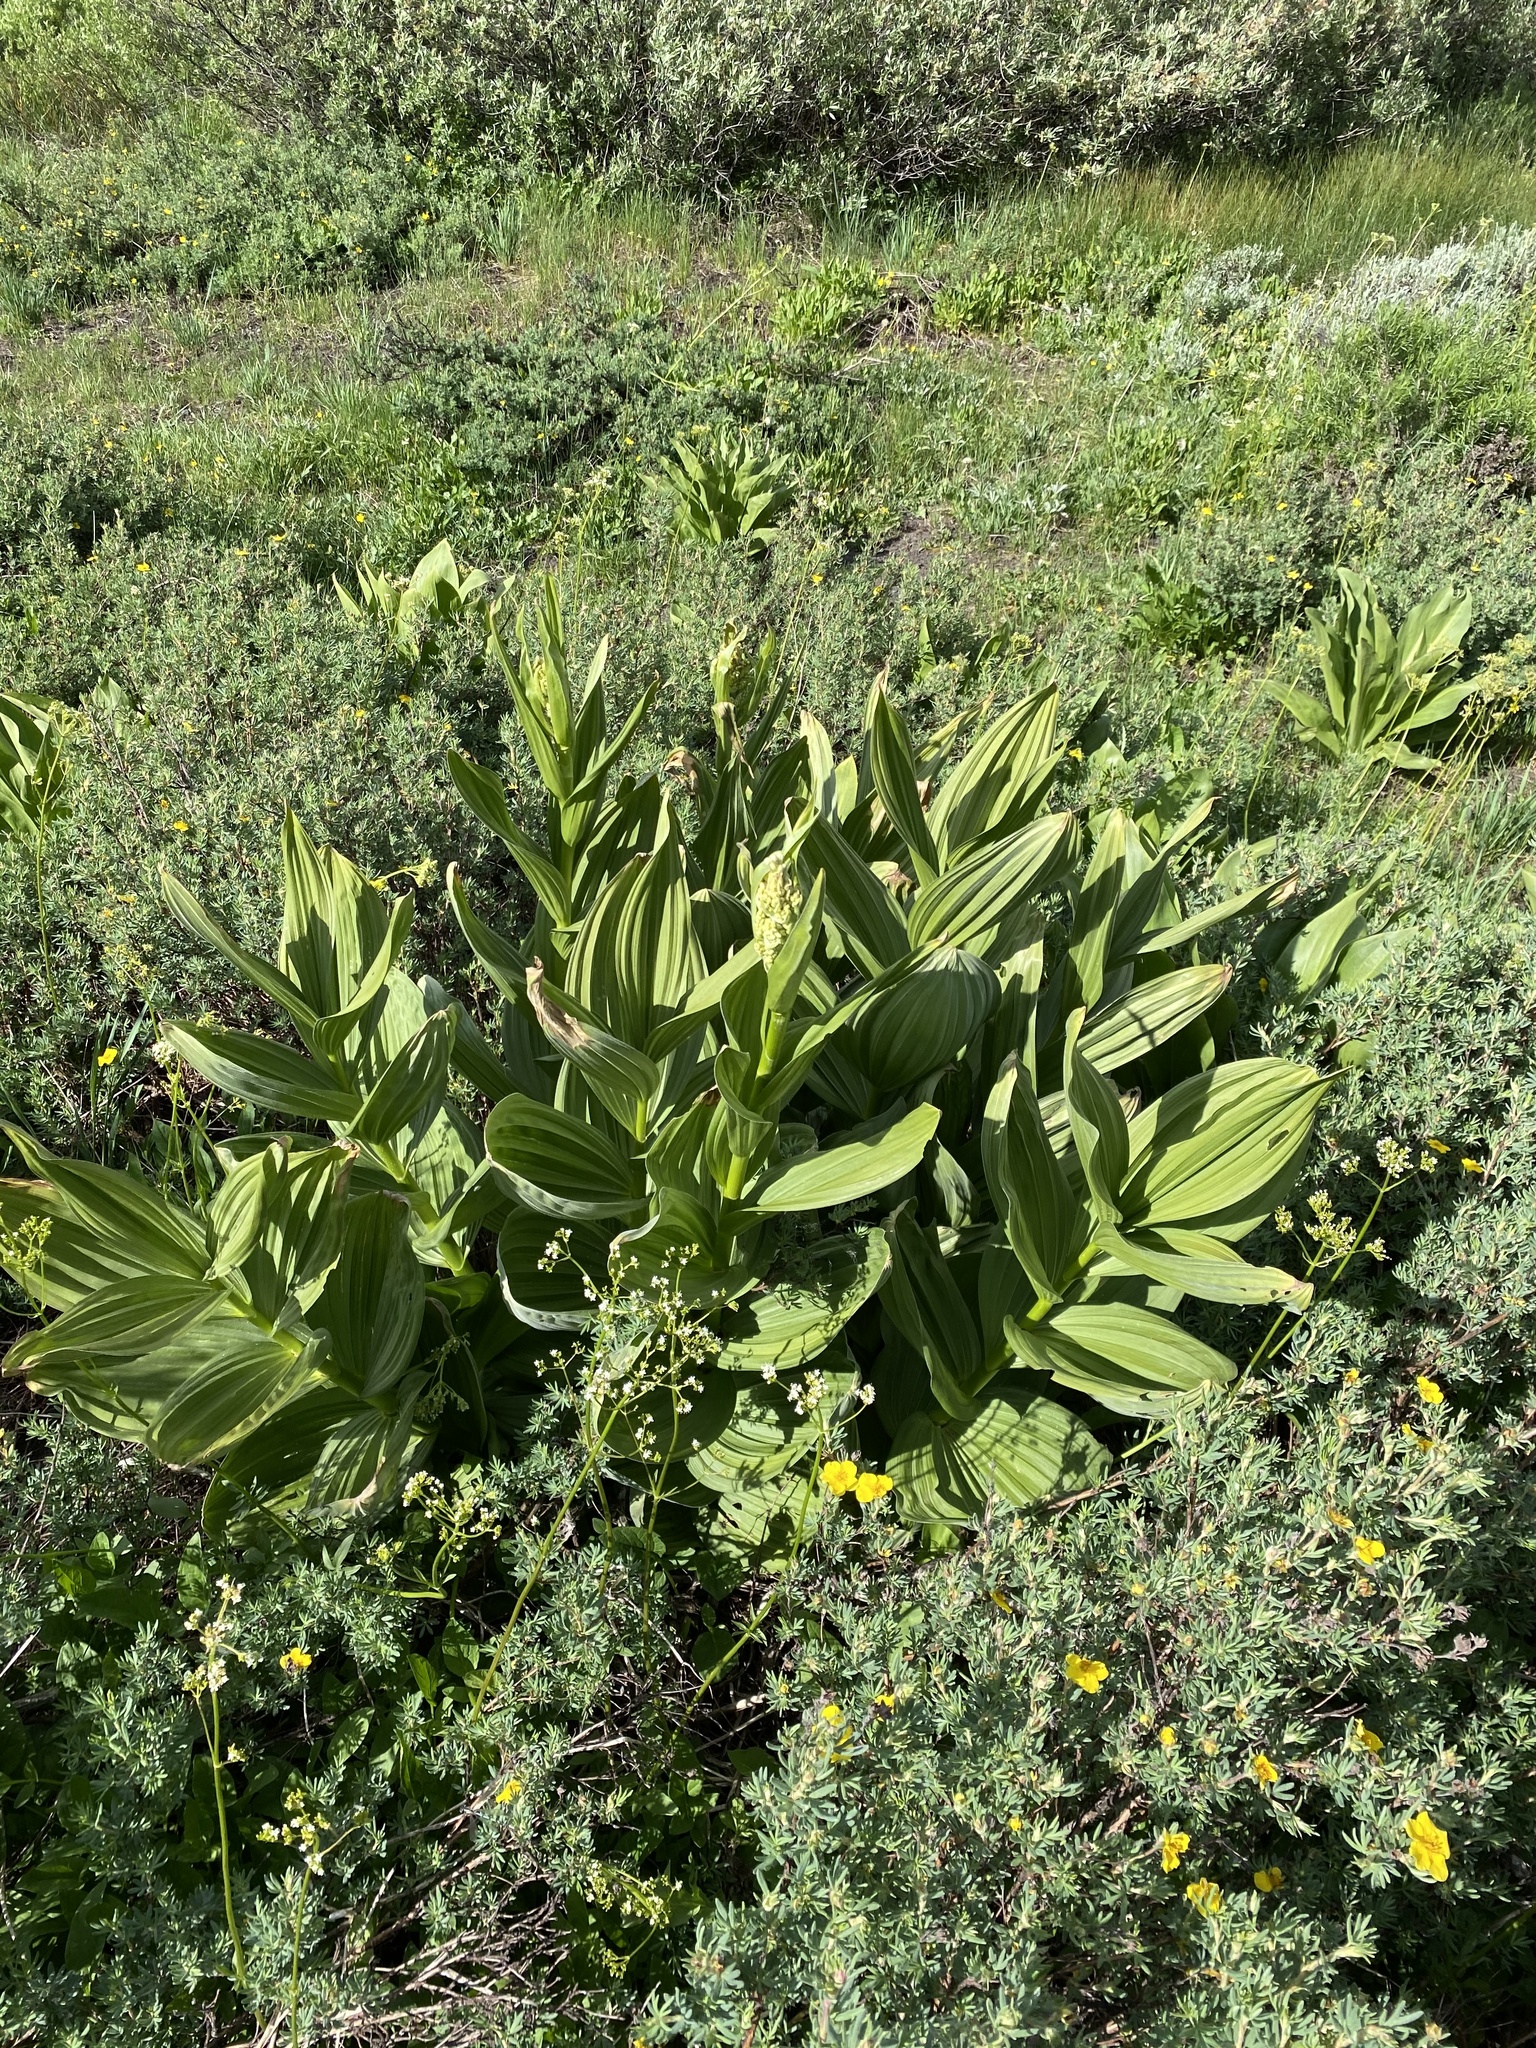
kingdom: Plantae
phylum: Tracheophyta
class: Liliopsida
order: Liliales
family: Melanthiaceae
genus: Veratrum
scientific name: Veratrum californicum
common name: California veratrum
